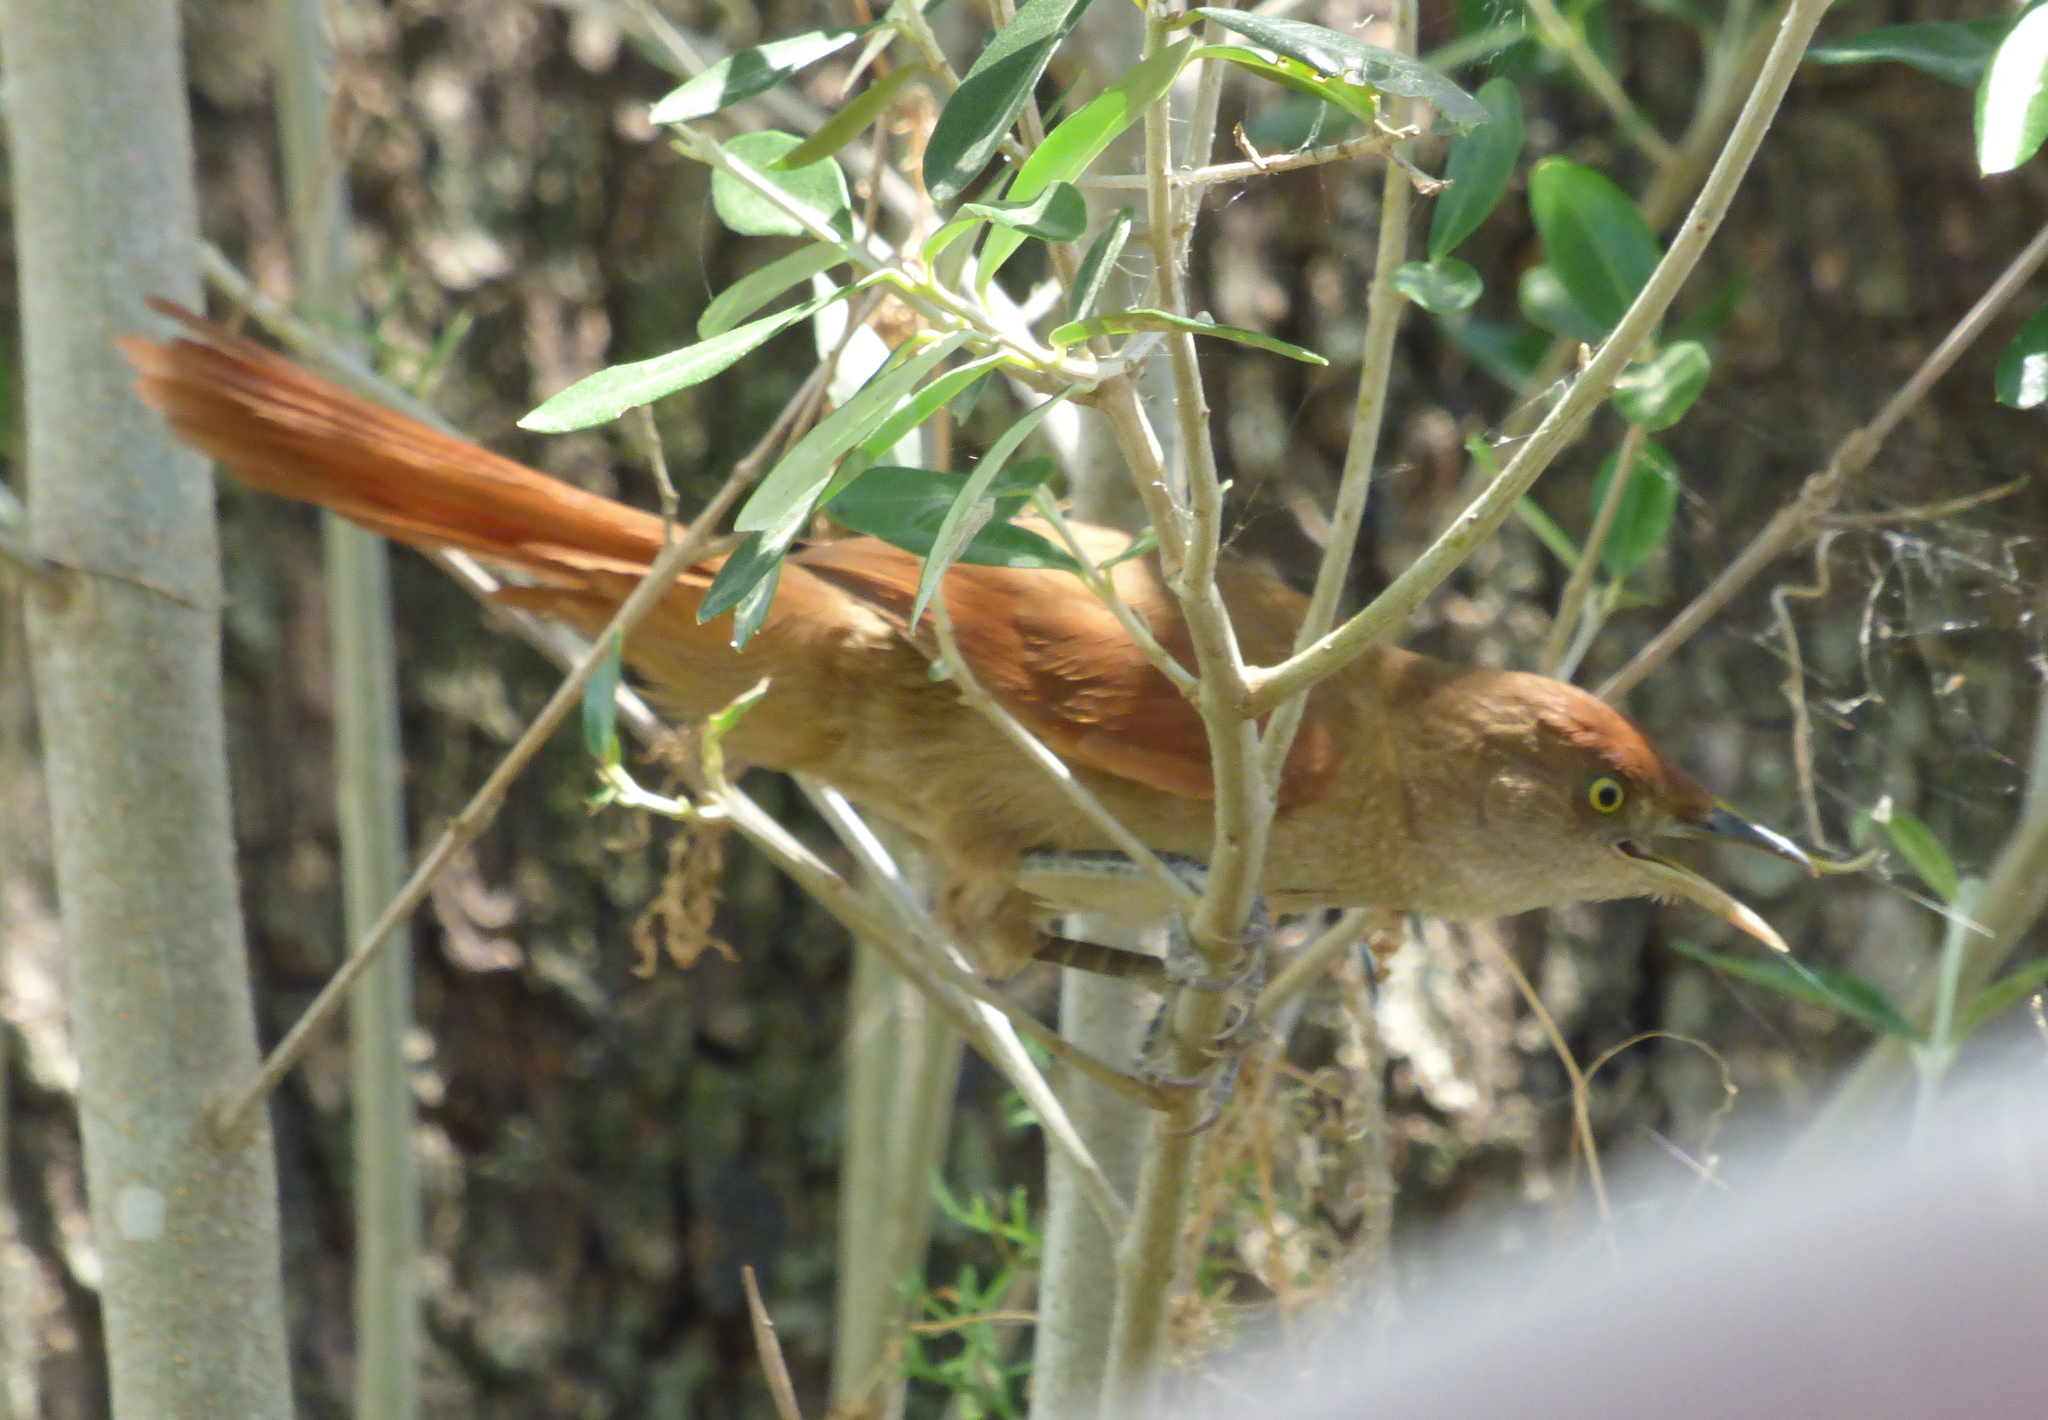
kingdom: Animalia
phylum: Chordata
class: Aves
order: Passeriformes
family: Furnariidae
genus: Phacellodomus
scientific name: Phacellodomus ruber
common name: Greater thornbird
